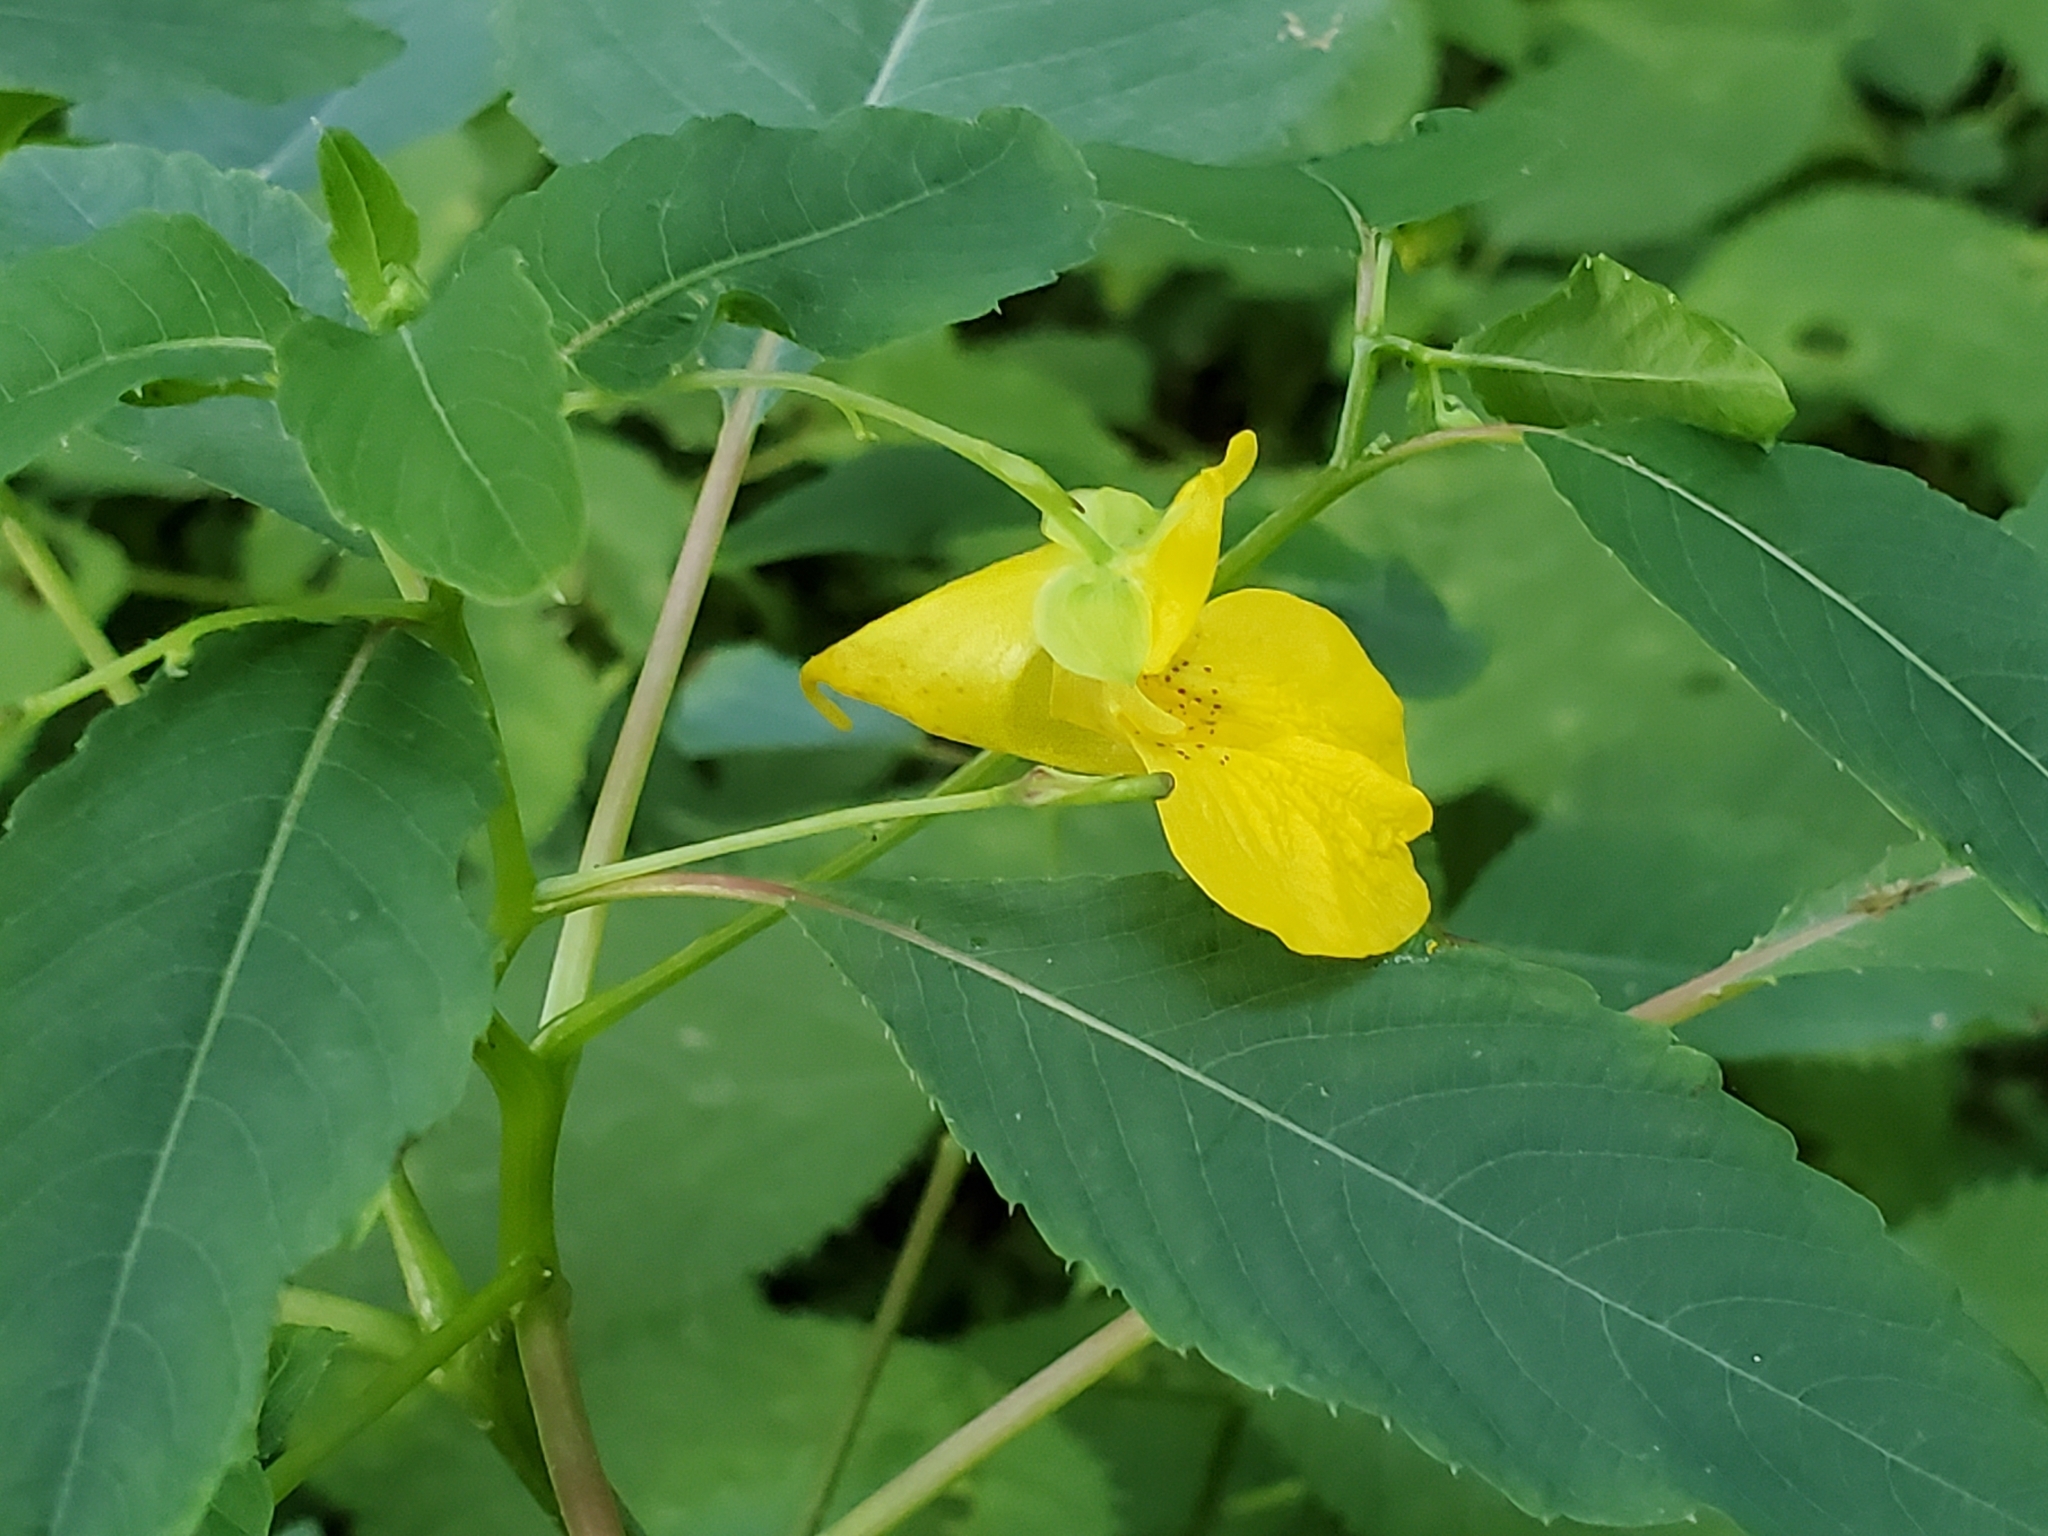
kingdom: Plantae
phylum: Tracheophyta
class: Magnoliopsida
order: Ericales
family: Balsaminaceae
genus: Impatiens
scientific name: Impatiens pallida
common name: Pale snapweed
